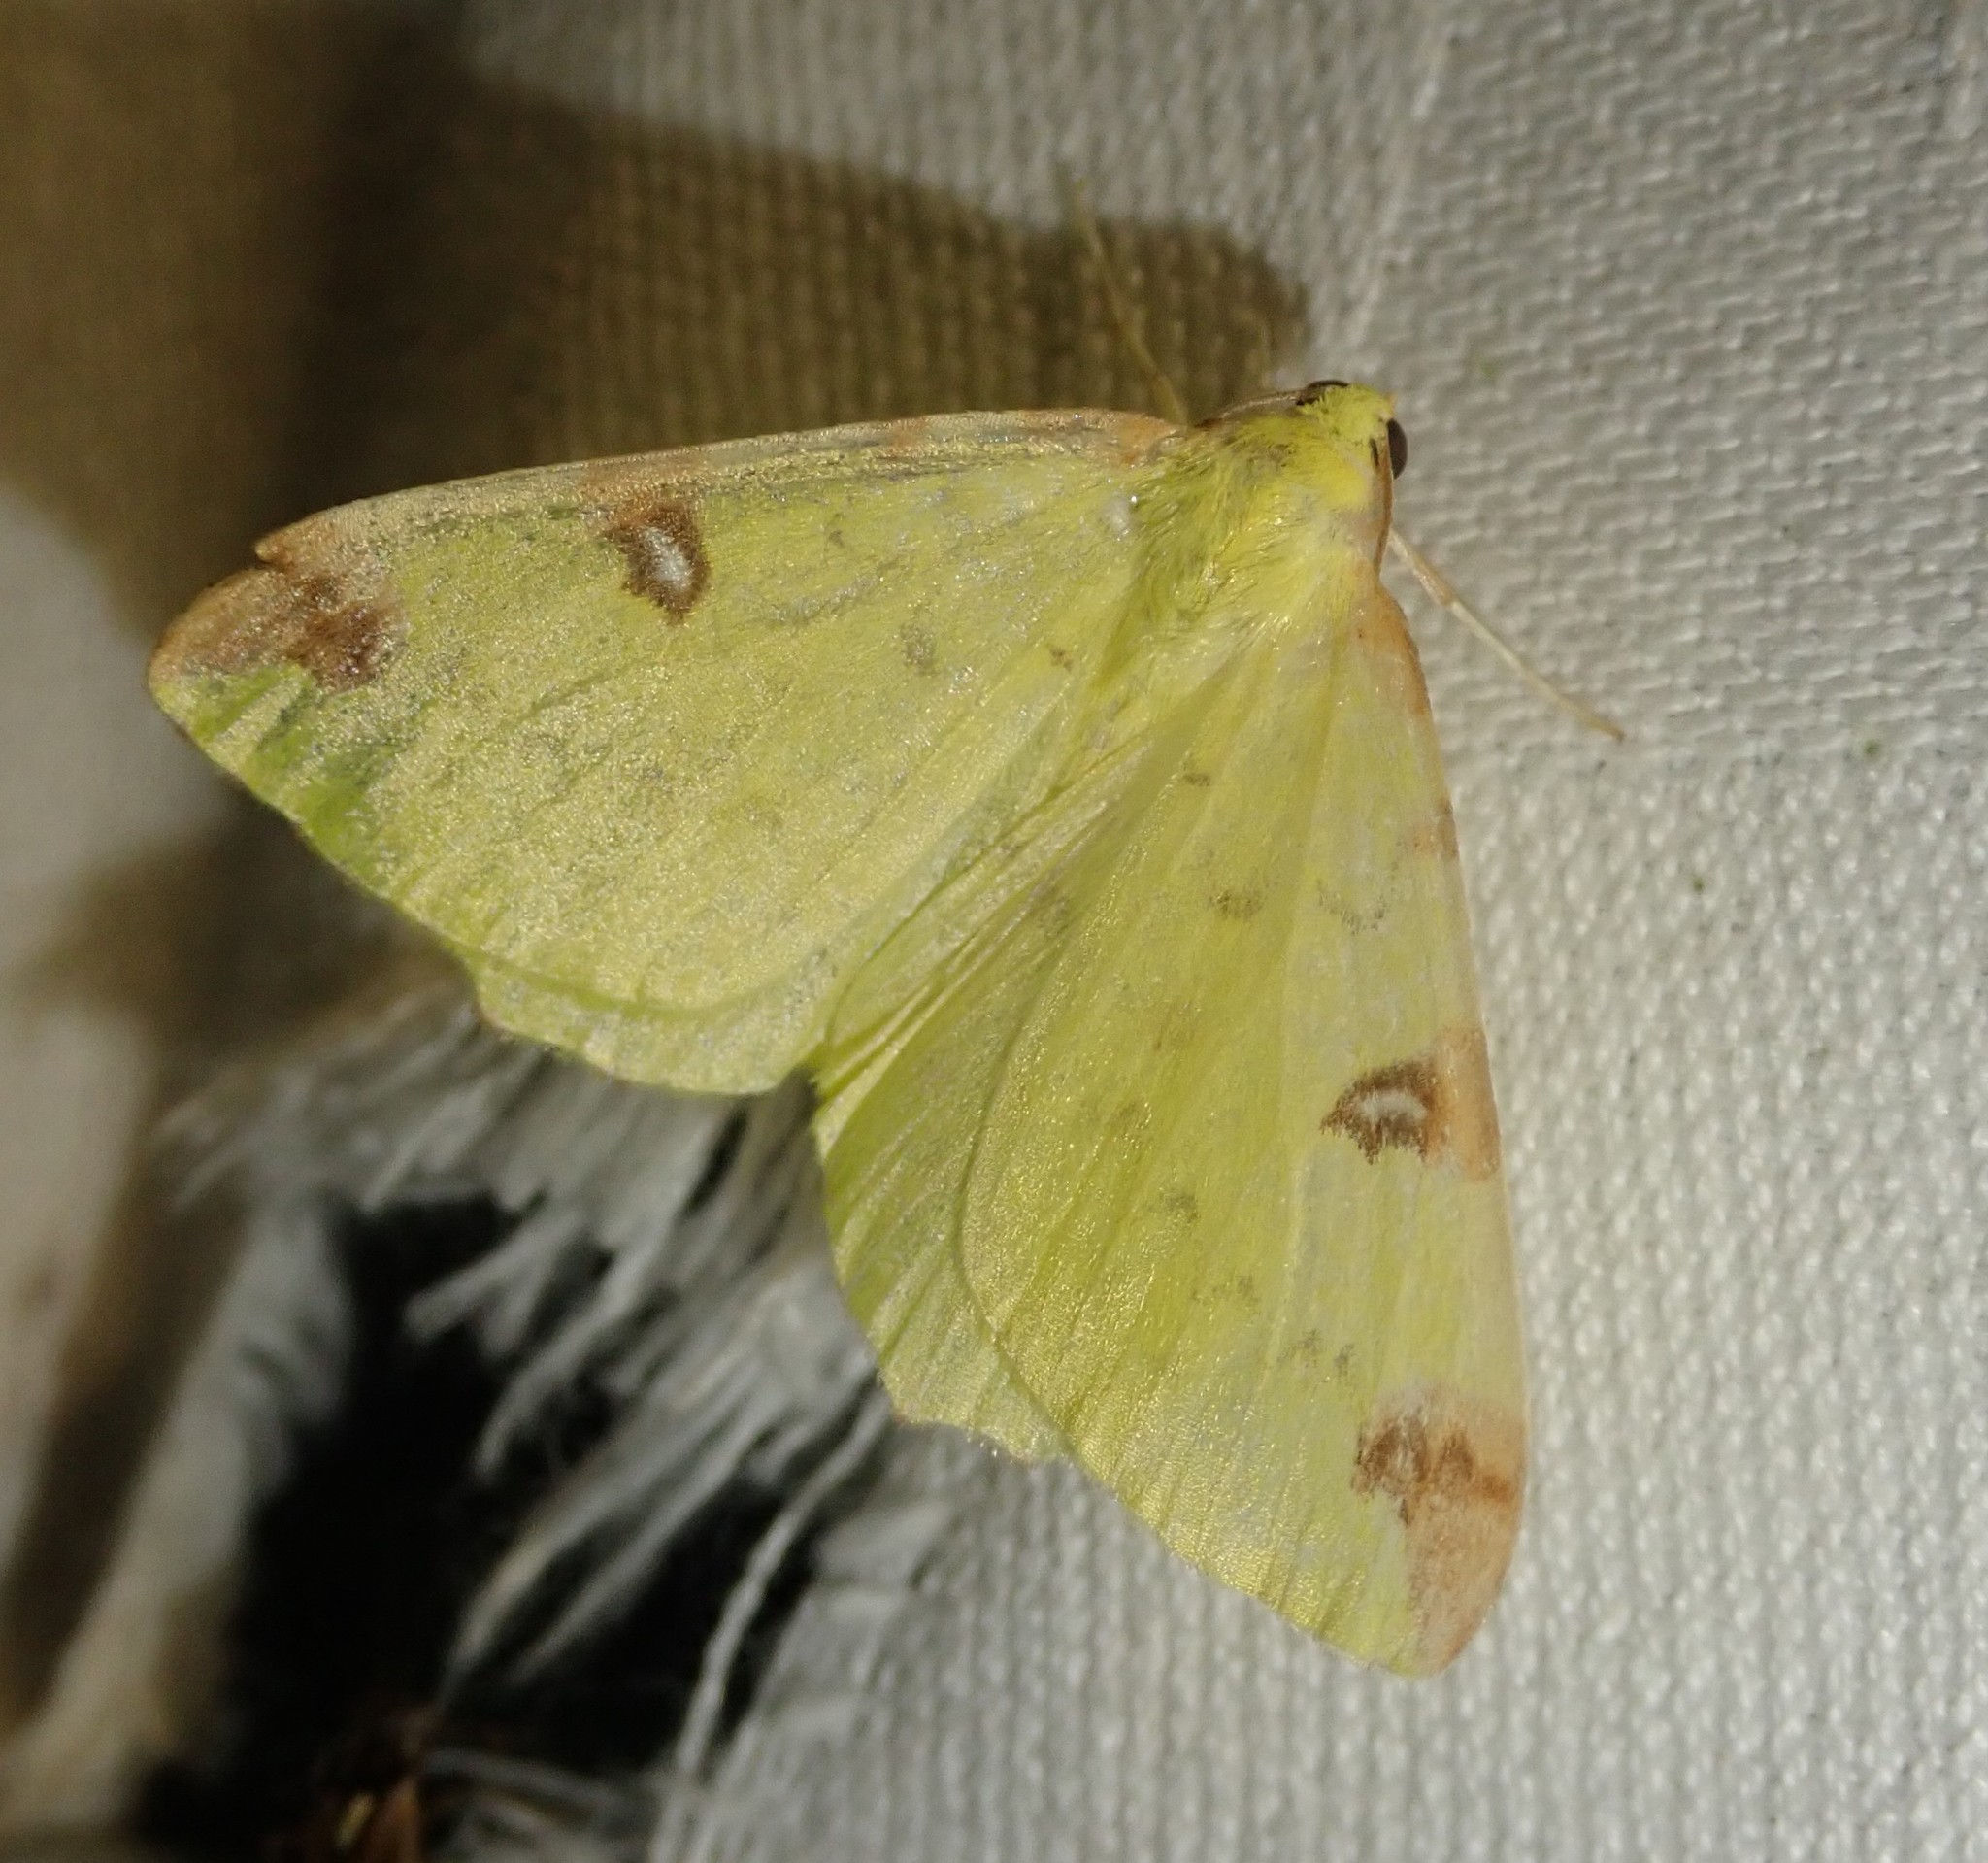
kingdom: Animalia
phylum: Arthropoda
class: Insecta
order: Lepidoptera
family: Geometridae
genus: Opisthograptis
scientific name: Opisthograptis luteolata
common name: Brimstone moth
